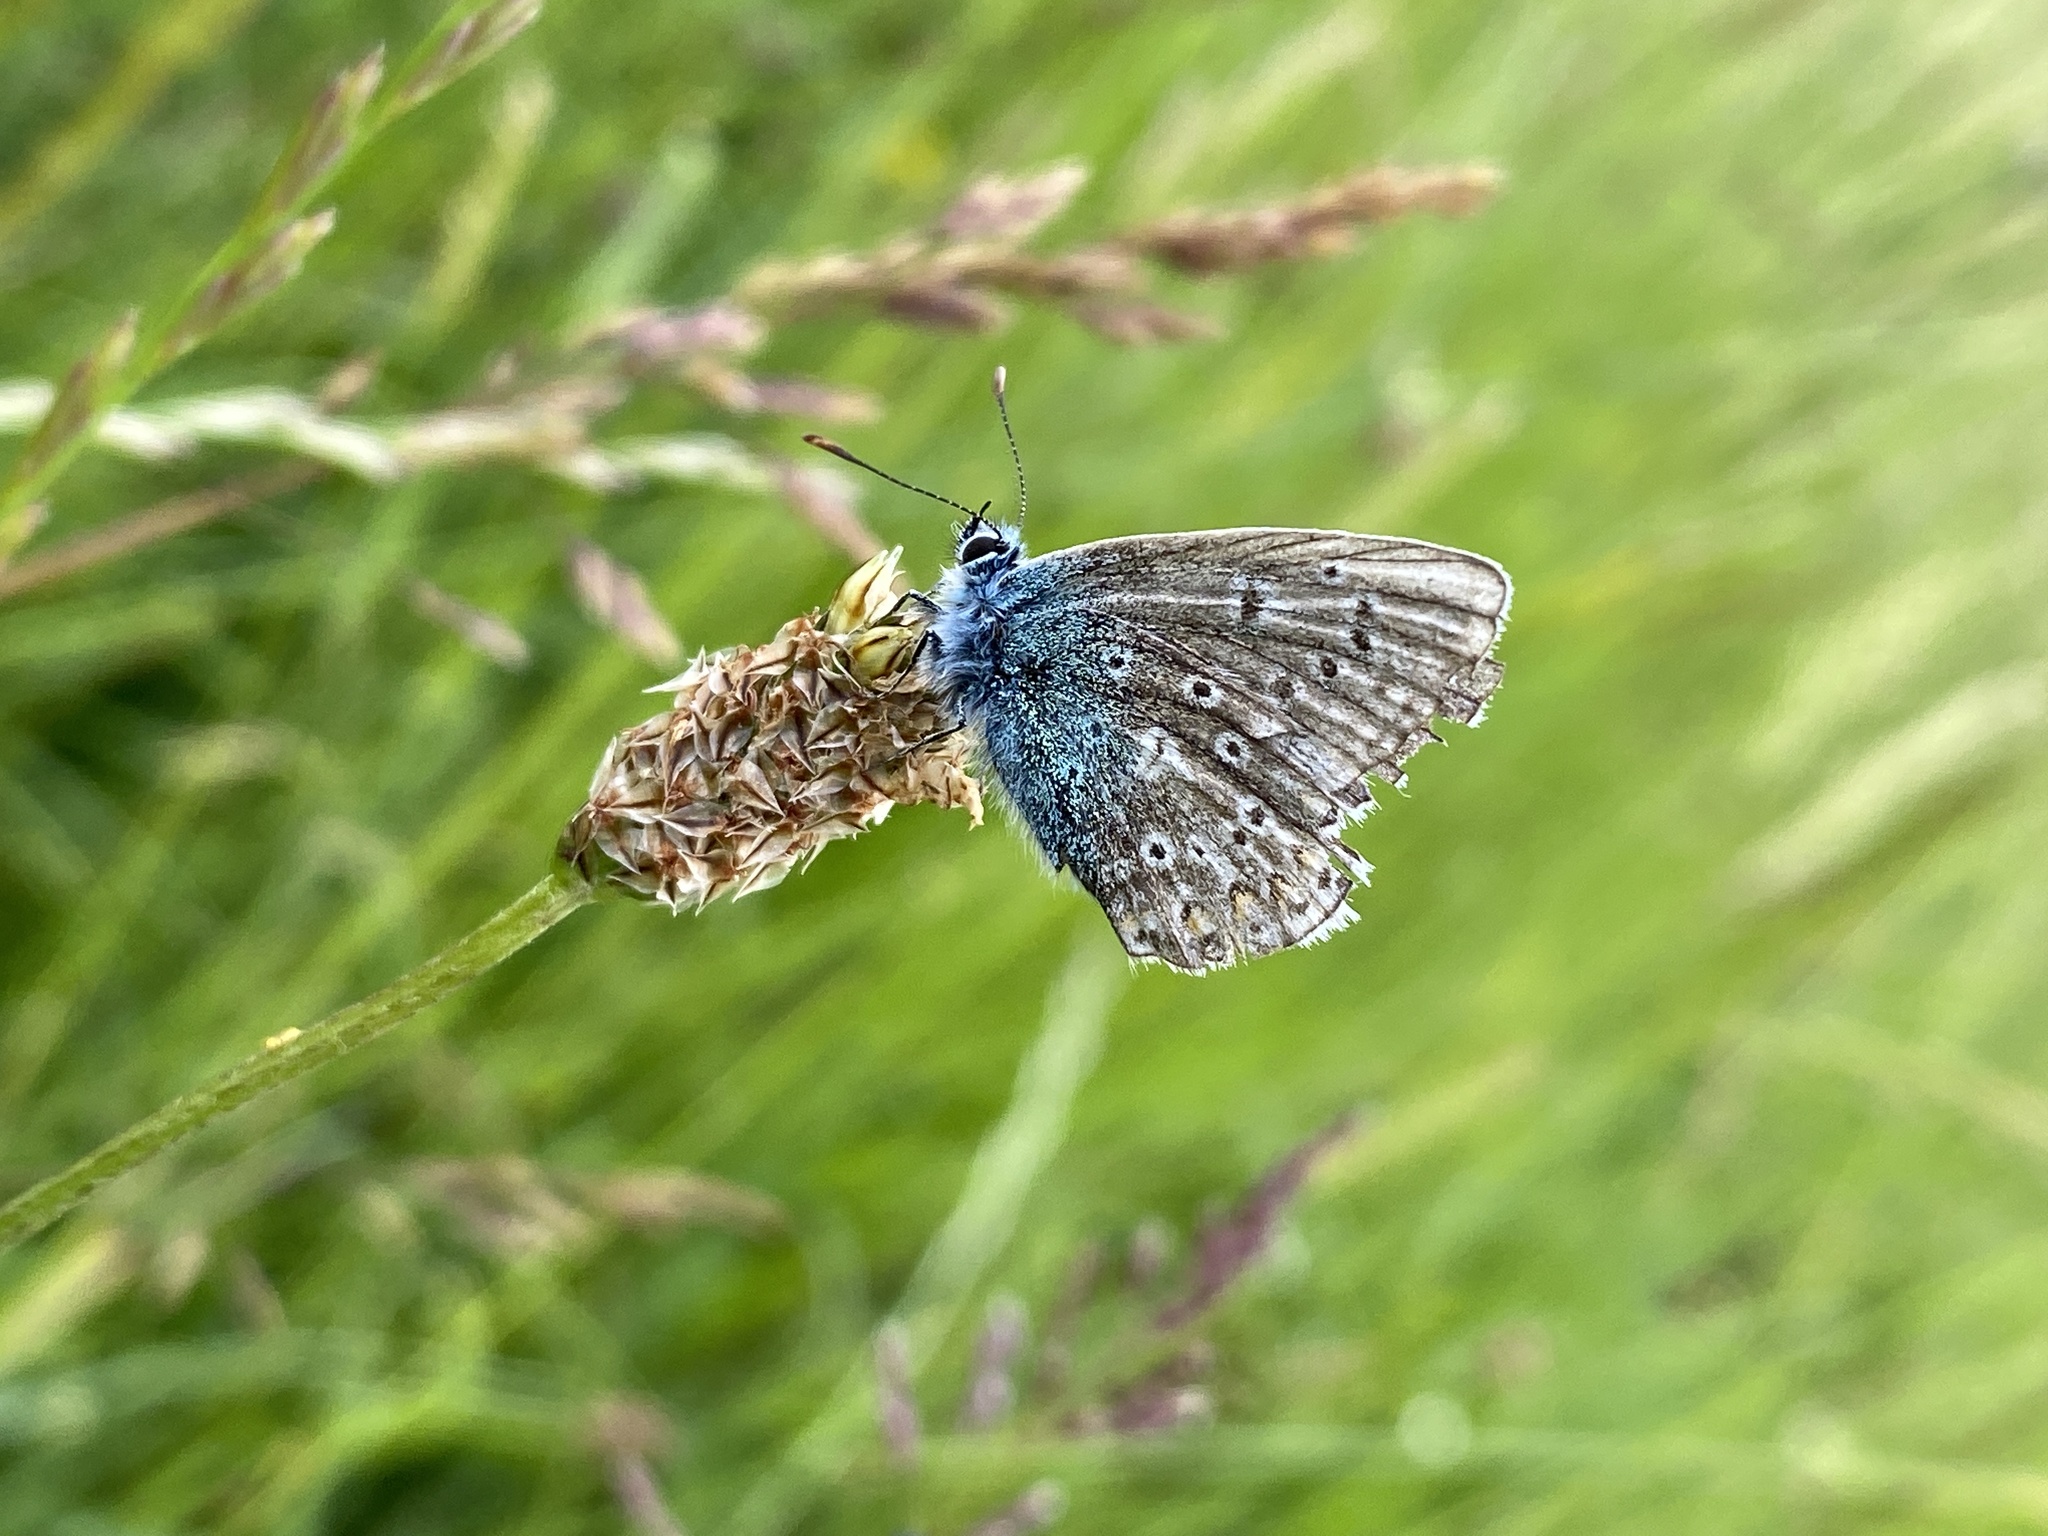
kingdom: Animalia
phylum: Arthropoda
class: Insecta
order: Lepidoptera
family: Lycaenidae
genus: Polyommatus
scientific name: Polyommatus icarus
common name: Common blue
